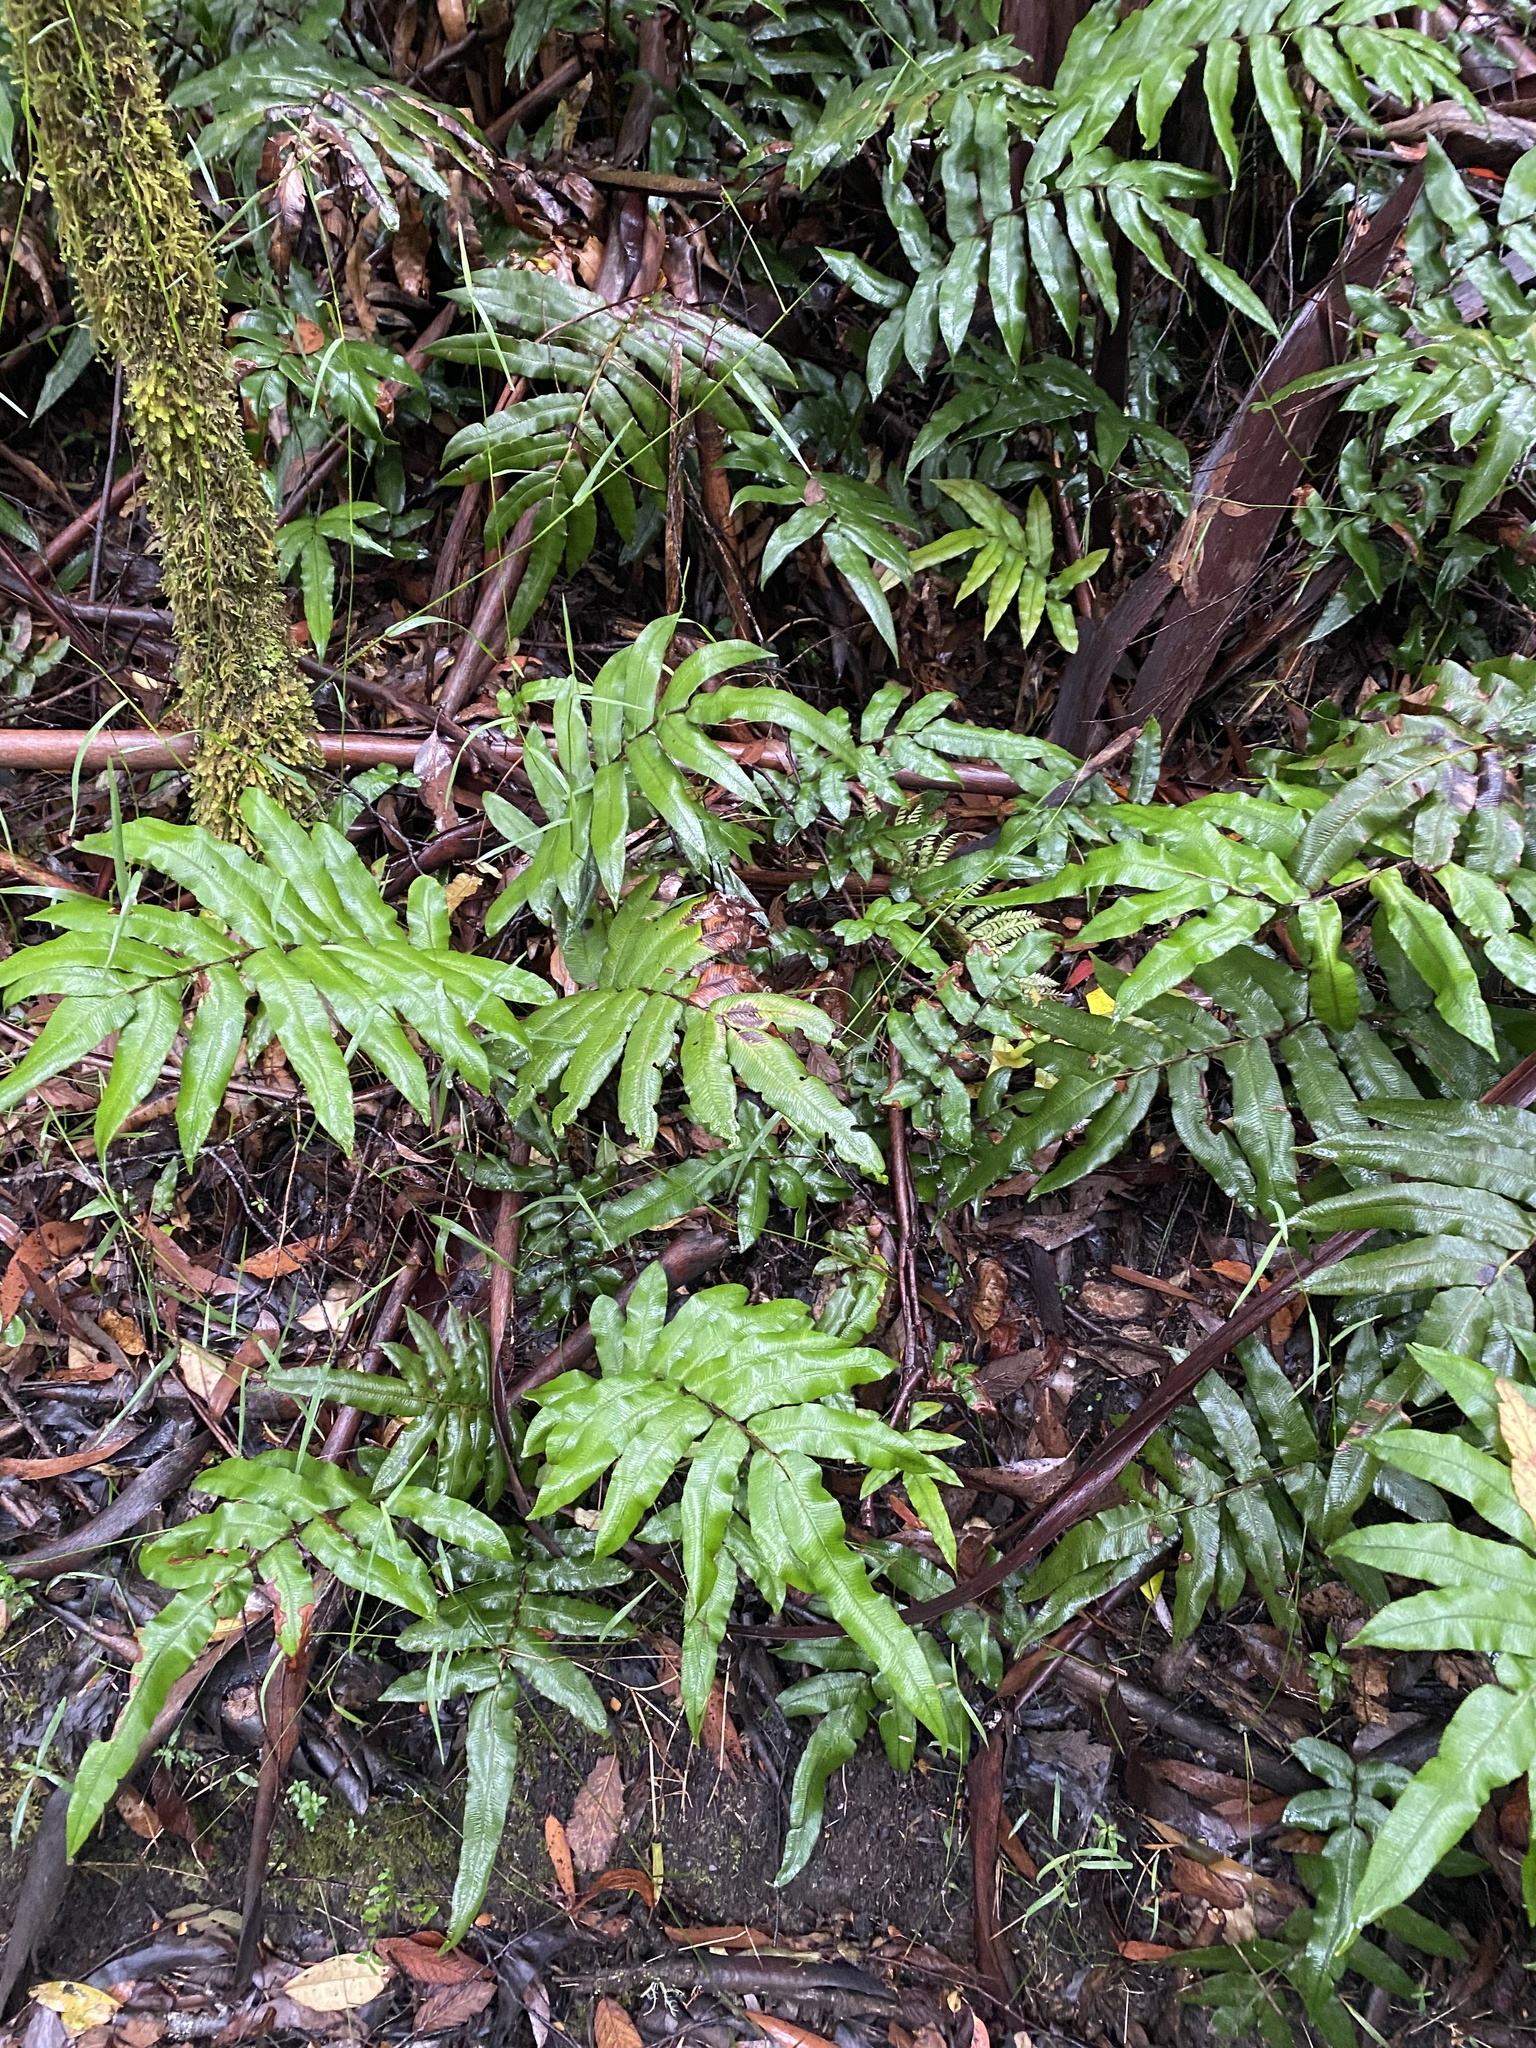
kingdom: Plantae
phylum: Tracheophyta
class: Polypodiopsida
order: Polypodiales
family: Blechnaceae
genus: Parablechnum
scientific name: Parablechnum wattsii
